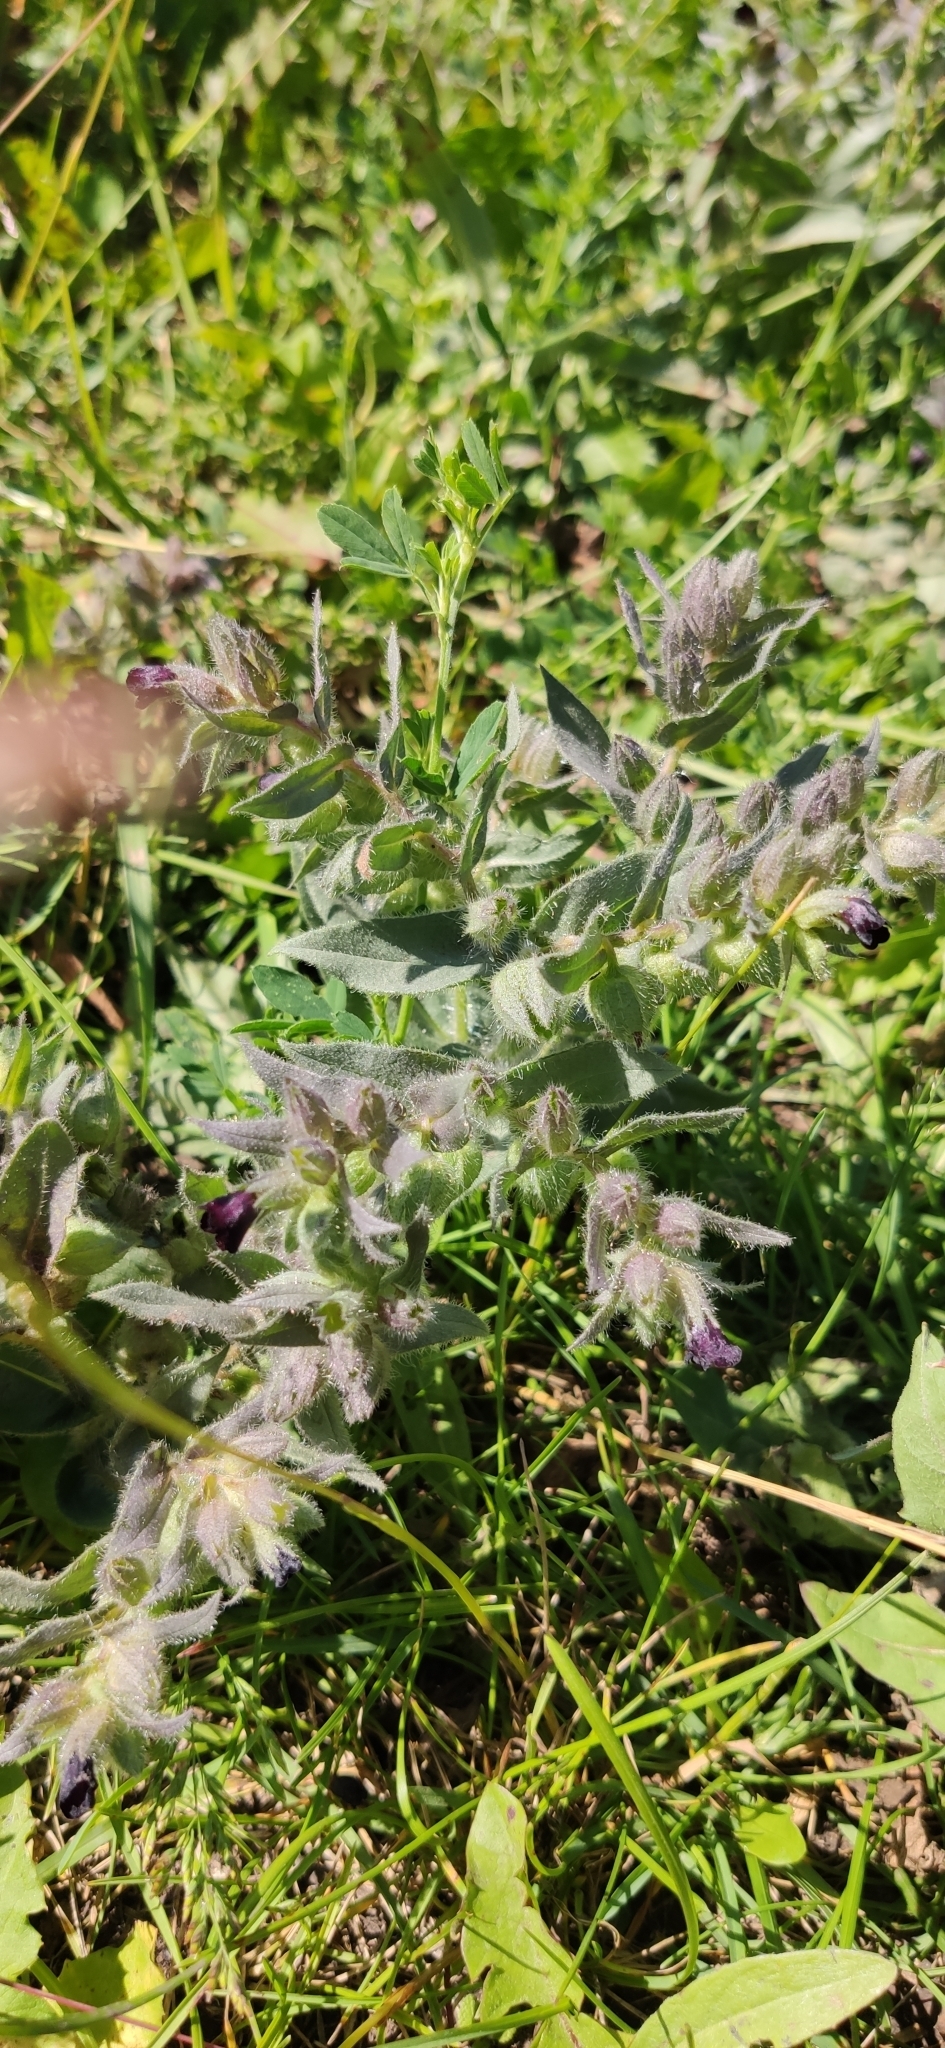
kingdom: Plantae
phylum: Tracheophyta
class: Magnoliopsida
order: Boraginales
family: Boraginaceae
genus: Nonea
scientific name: Nonea pulla
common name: Brown nonea
